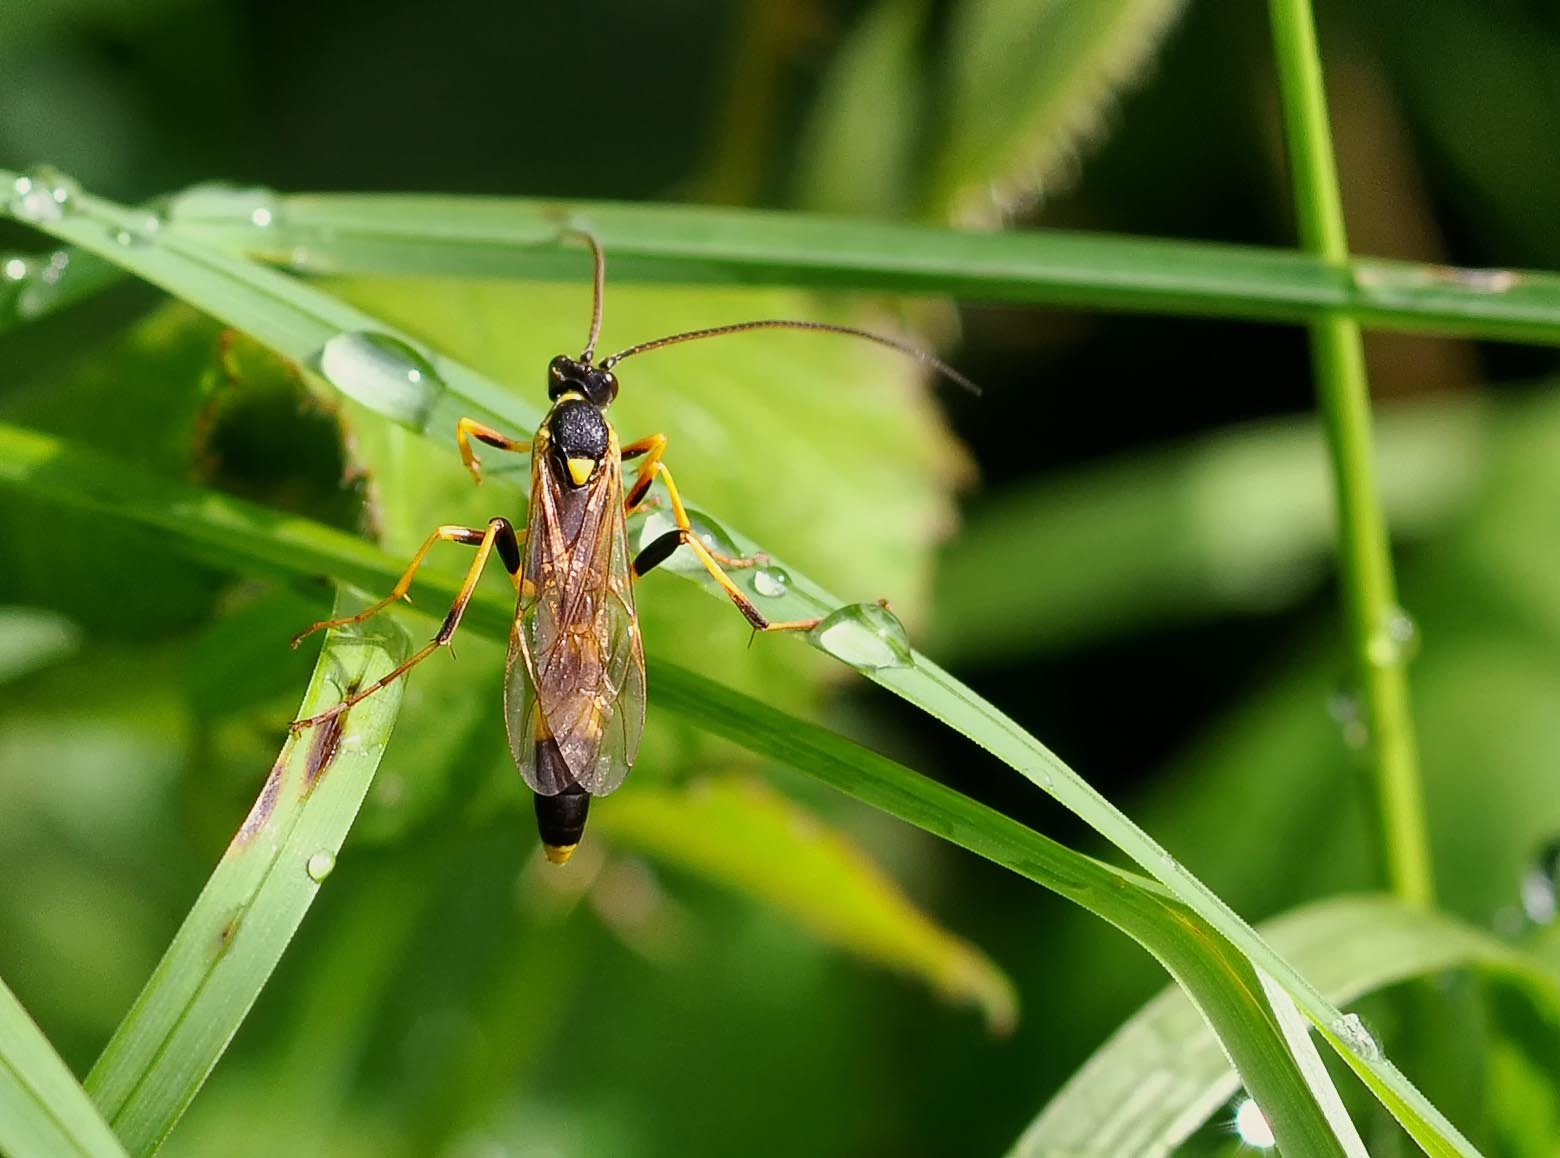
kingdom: Animalia
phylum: Arthropoda
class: Insecta
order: Hymenoptera
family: Ichneumonidae
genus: Amblyteles
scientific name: Amblyteles armatorius
